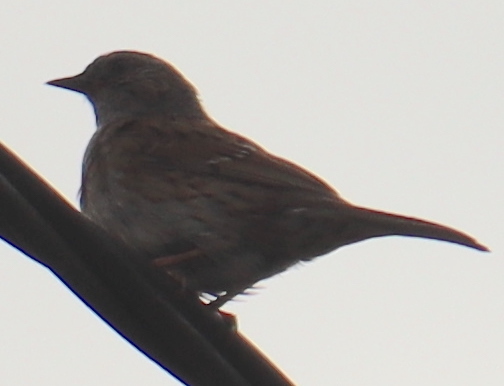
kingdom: Animalia
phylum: Chordata
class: Aves
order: Passeriformes
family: Prunellidae
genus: Prunella
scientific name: Prunella modularis
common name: Dunnock
